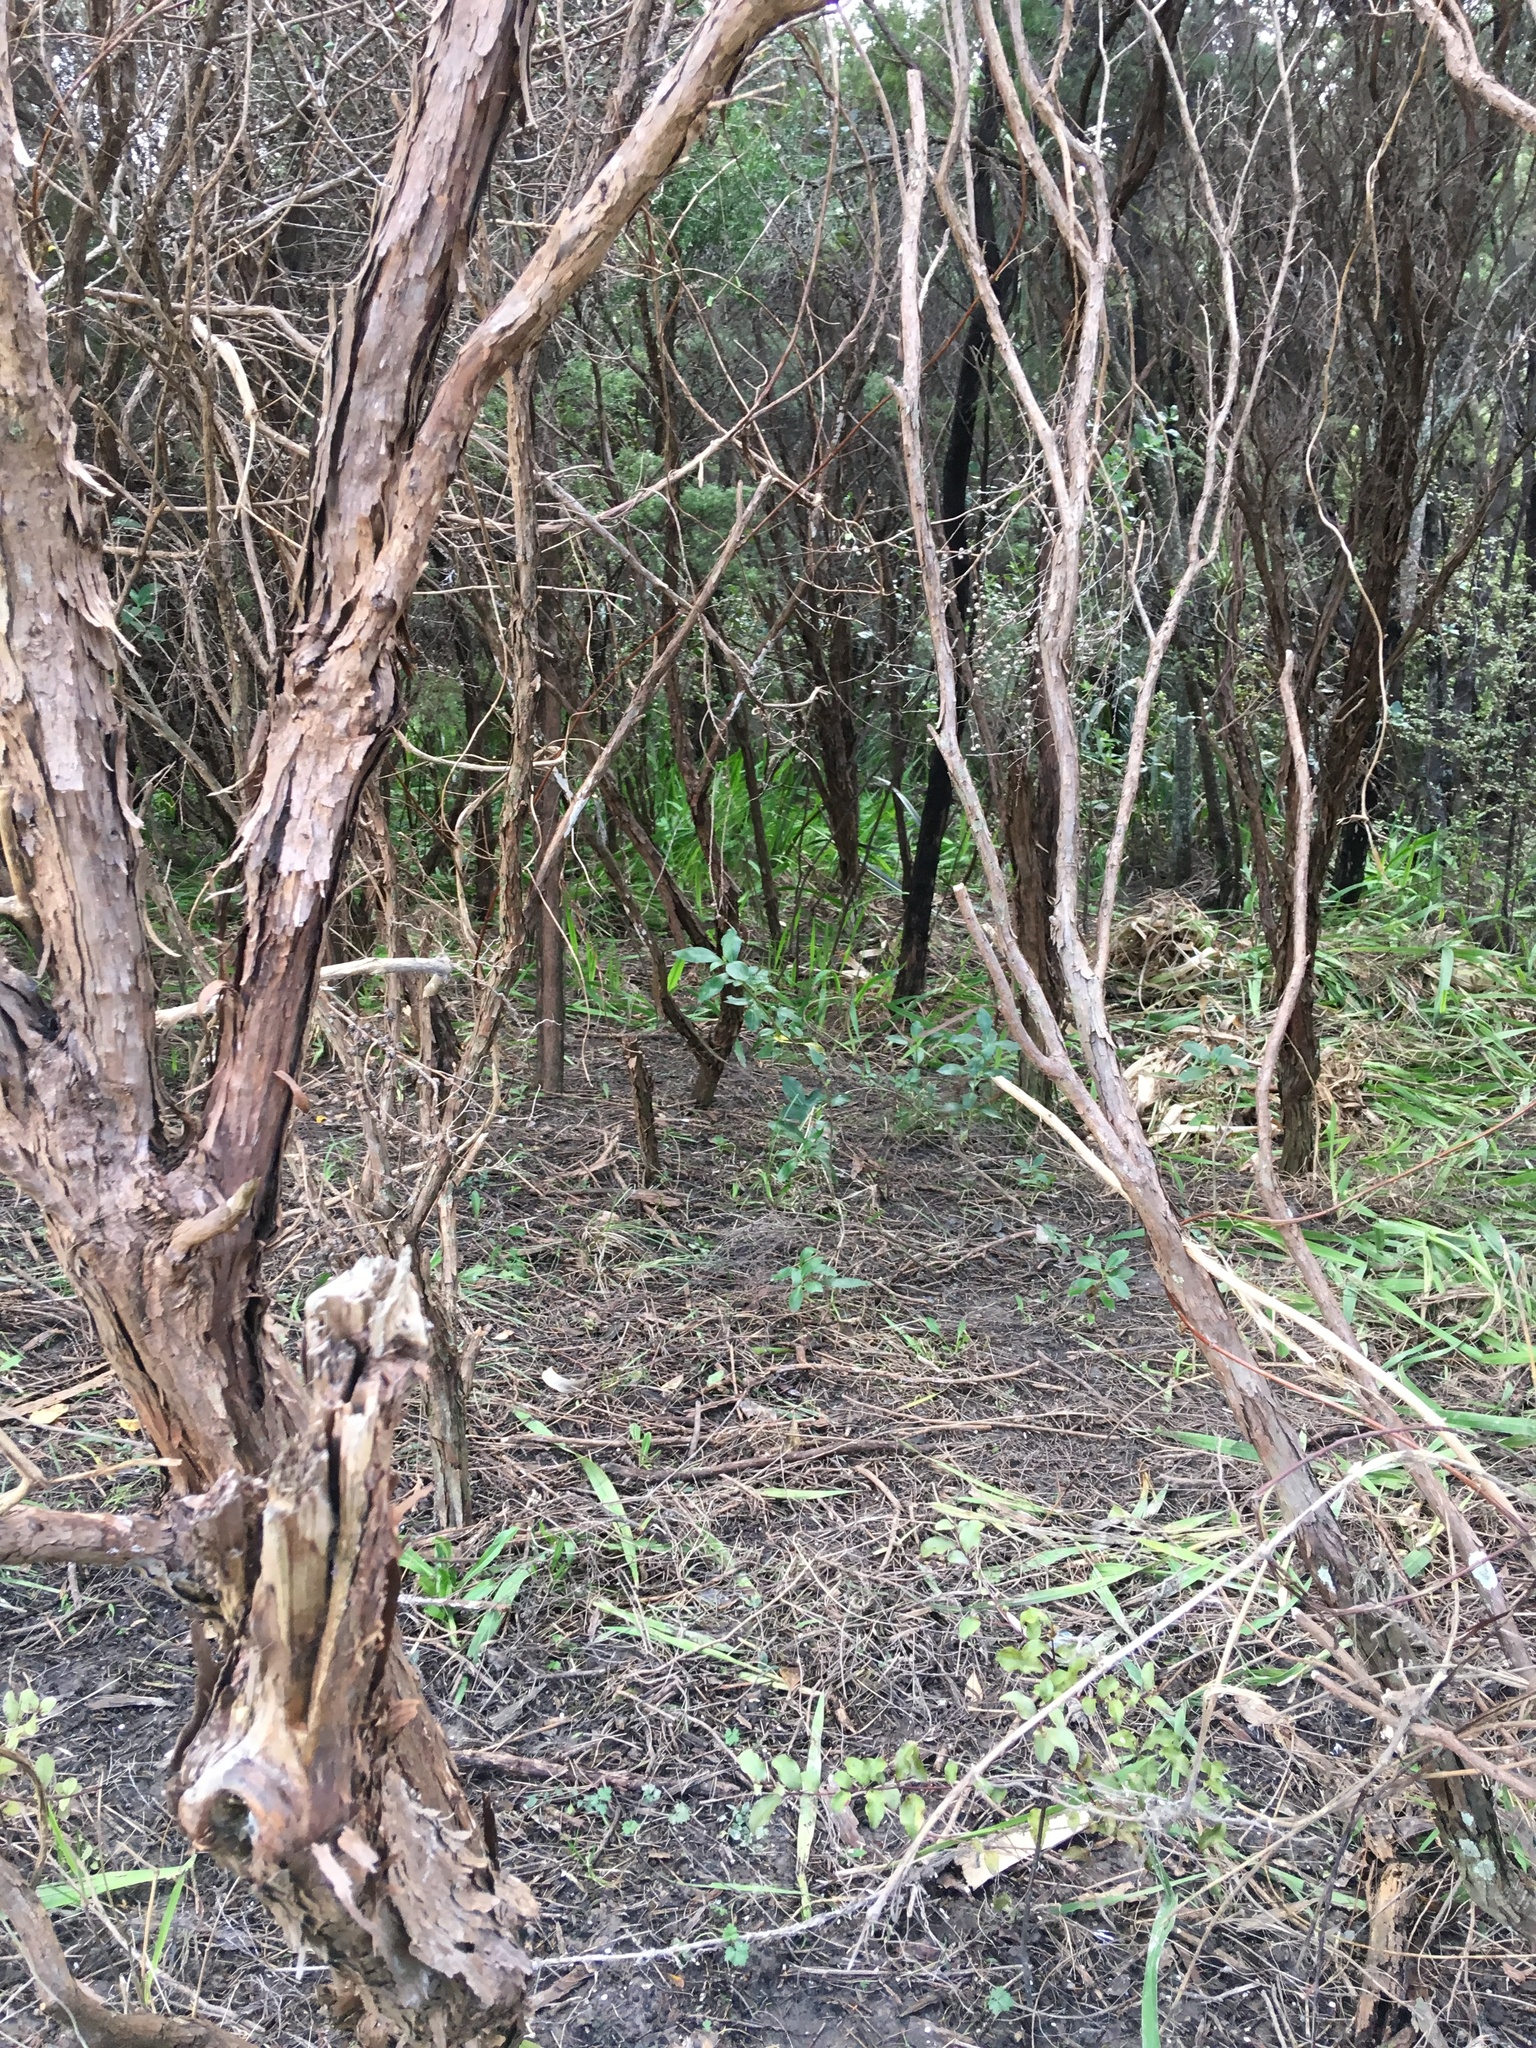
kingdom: Plantae
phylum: Tracheophyta
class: Magnoliopsida
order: Myrtales
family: Myrtaceae
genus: Leptospermum
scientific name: Leptospermum scoparium
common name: Broom tea-tree
